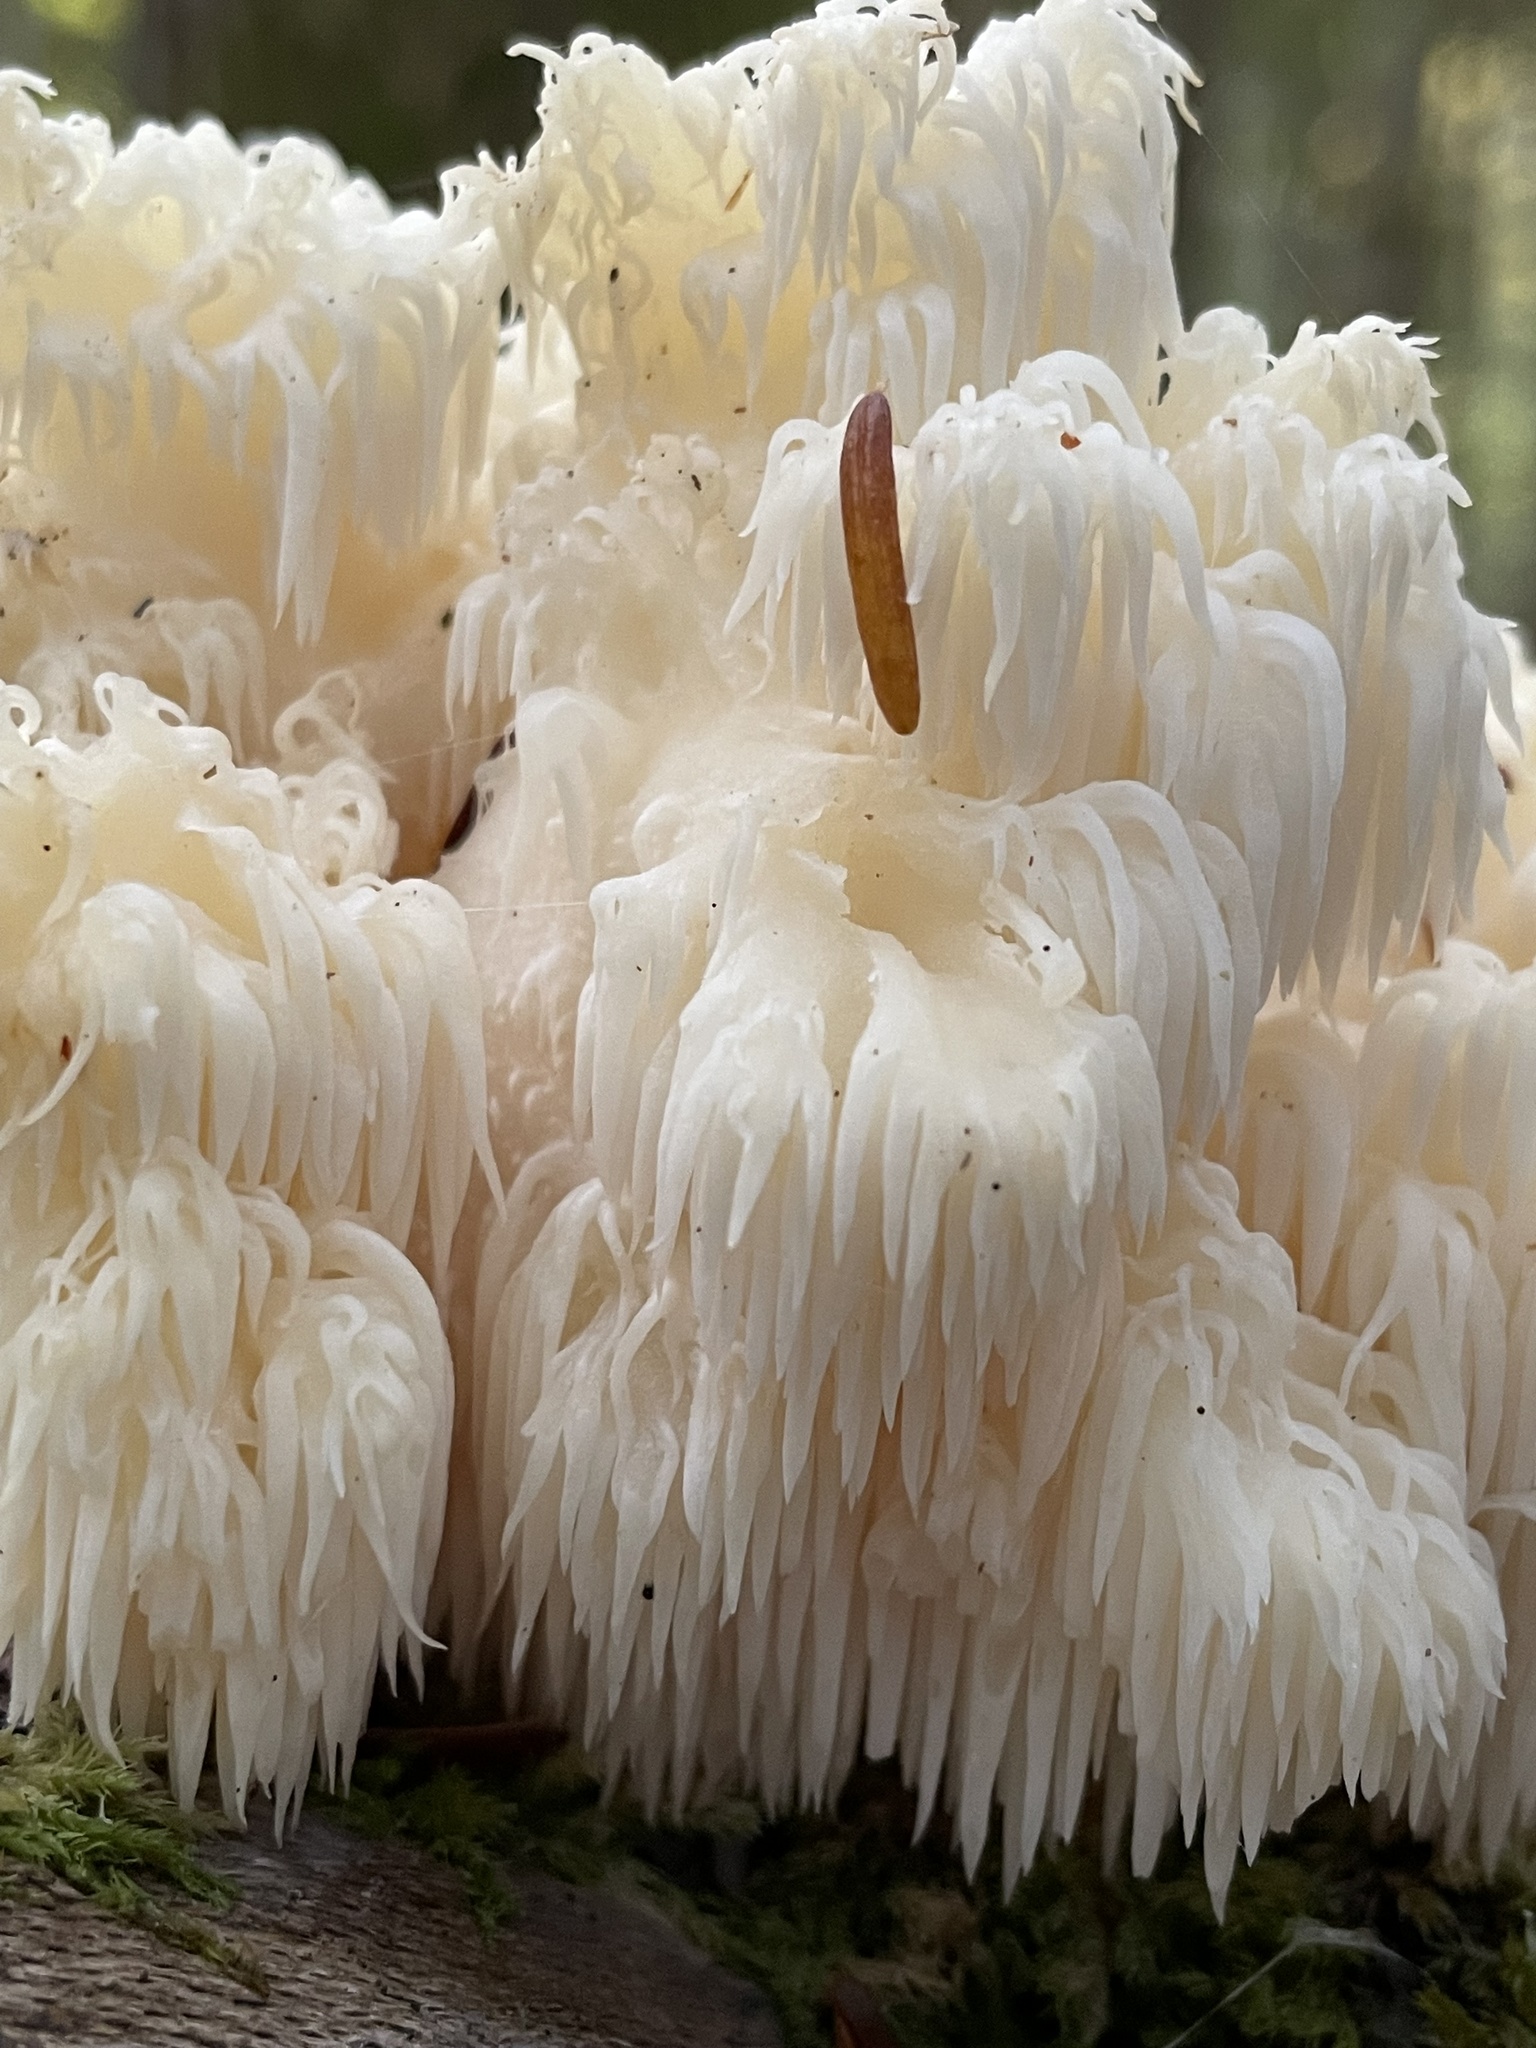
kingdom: Fungi
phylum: Basidiomycota
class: Agaricomycetes
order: Russulales
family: Hericiaceae
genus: Hericium
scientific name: Hericium americanum
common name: Bear's head tooth
